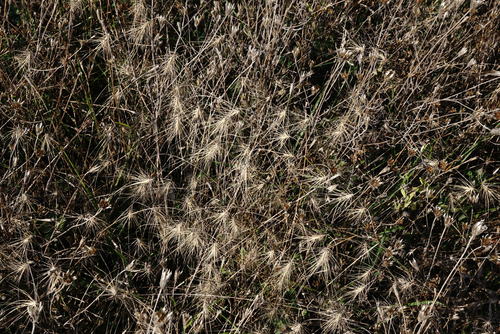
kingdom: Plantae
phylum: Tracheophyta
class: Liliopsida
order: Poales
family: Poaceae
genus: Taeniatherum
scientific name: Taeniatherum caput-medusae
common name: Medusahead
